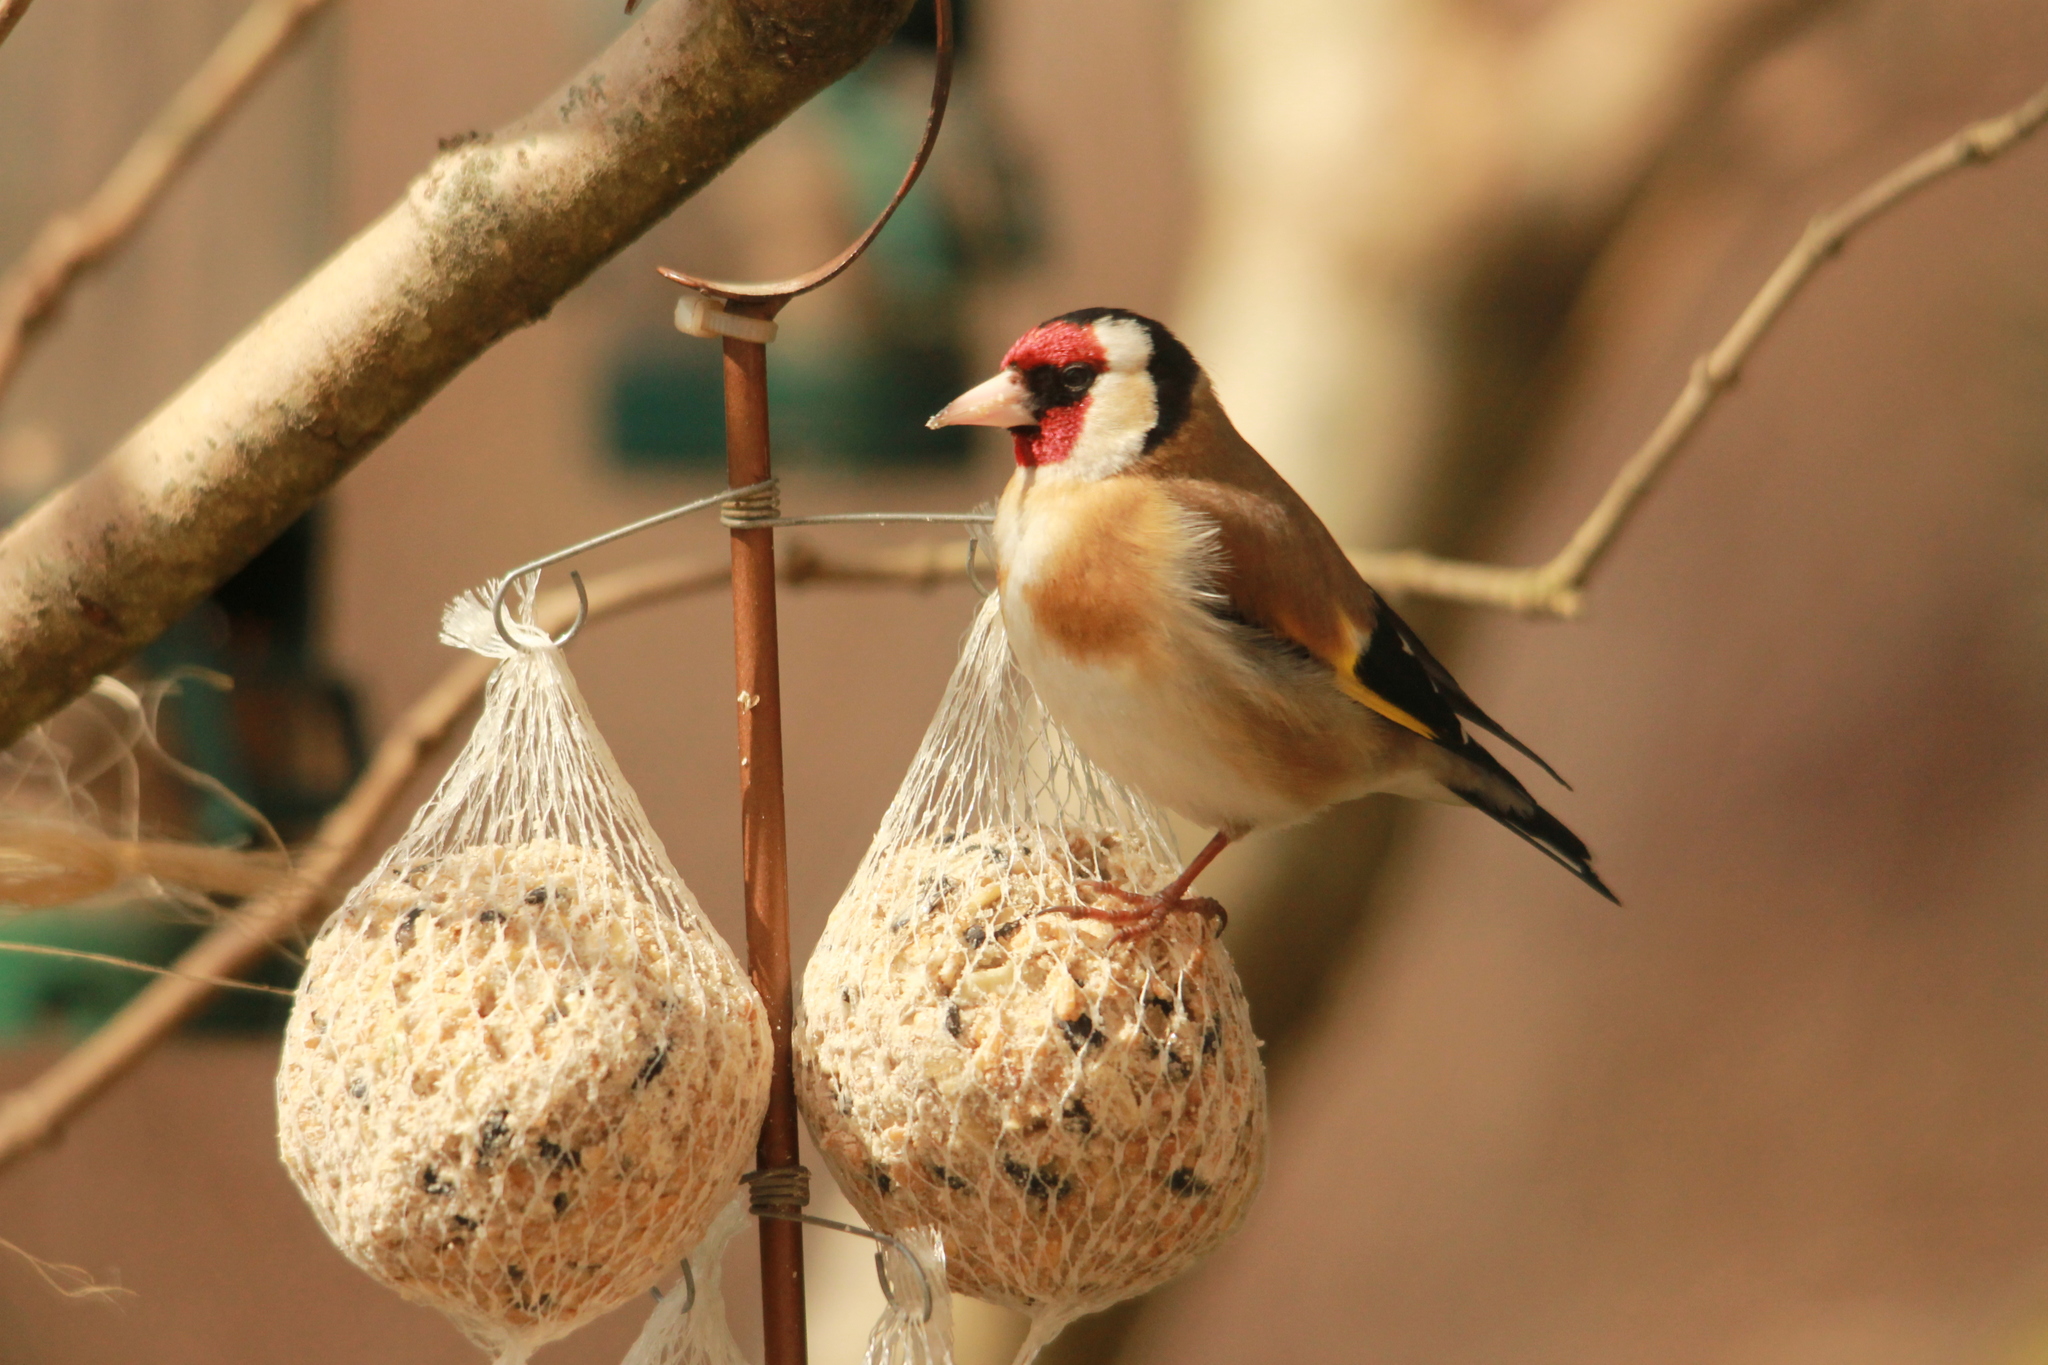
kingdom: Animalia
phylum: Chordata
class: Aves
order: Passeriformes
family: Fringillidae
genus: Carduelis
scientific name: Carduelis carduelis
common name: European goldfinch
